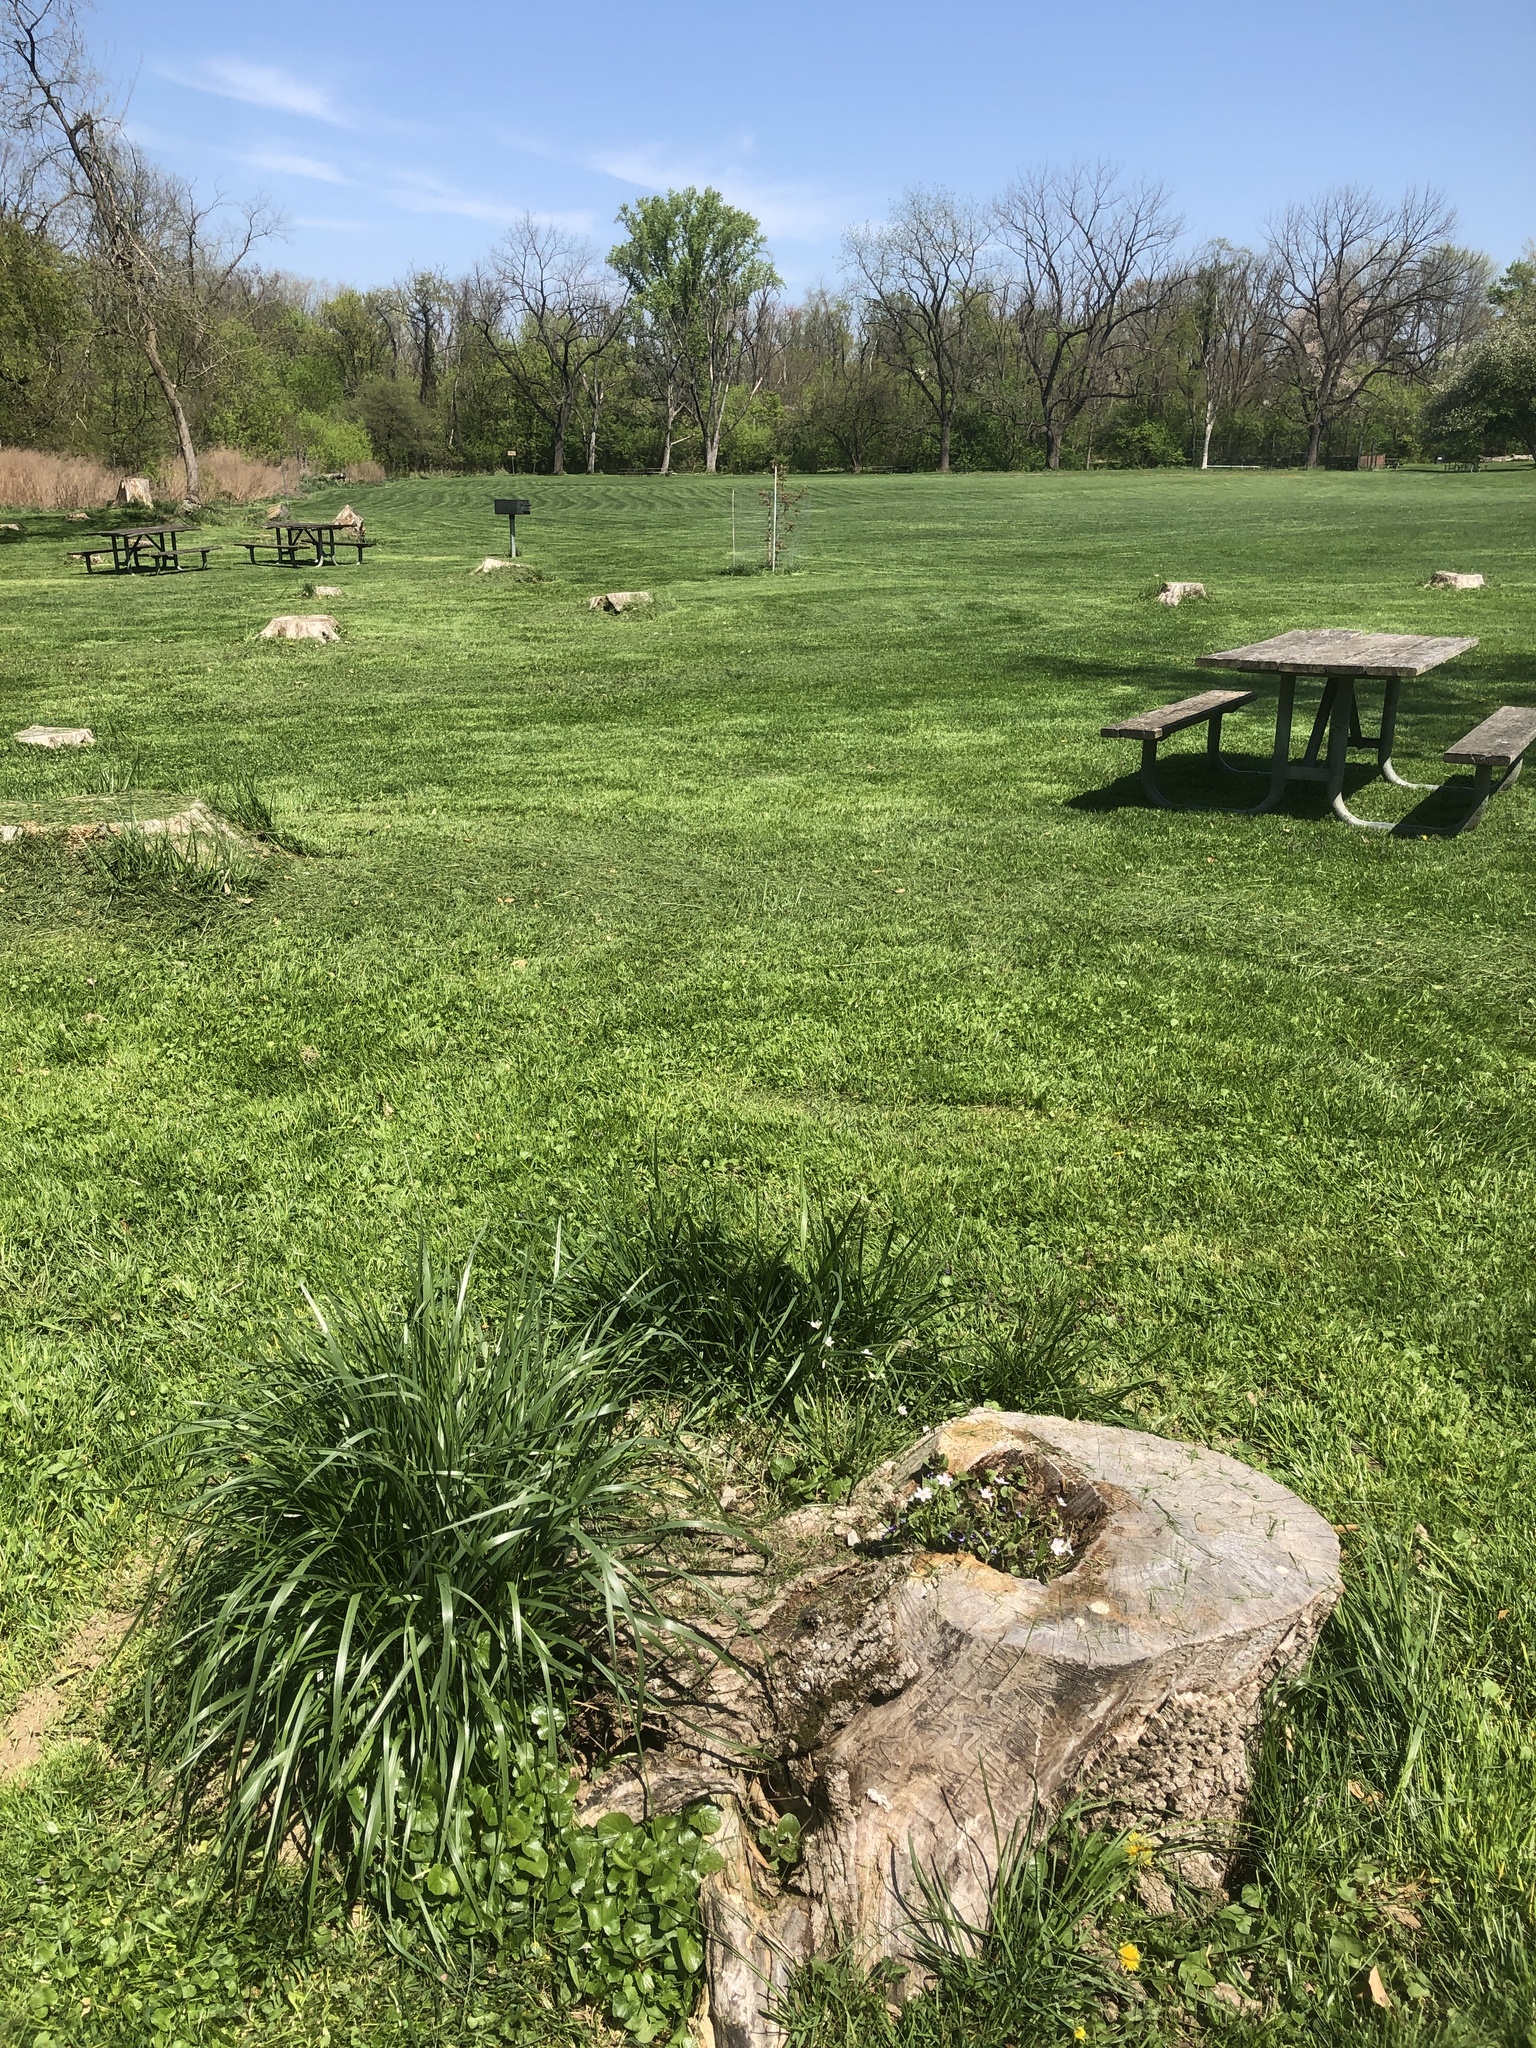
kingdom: Plantae
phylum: Tracheophyta
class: Magnoliopsida
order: Caryophyllales
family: Montiaceae
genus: Claytonia
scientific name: Claytonia virginica
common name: Virginia springbeauty
